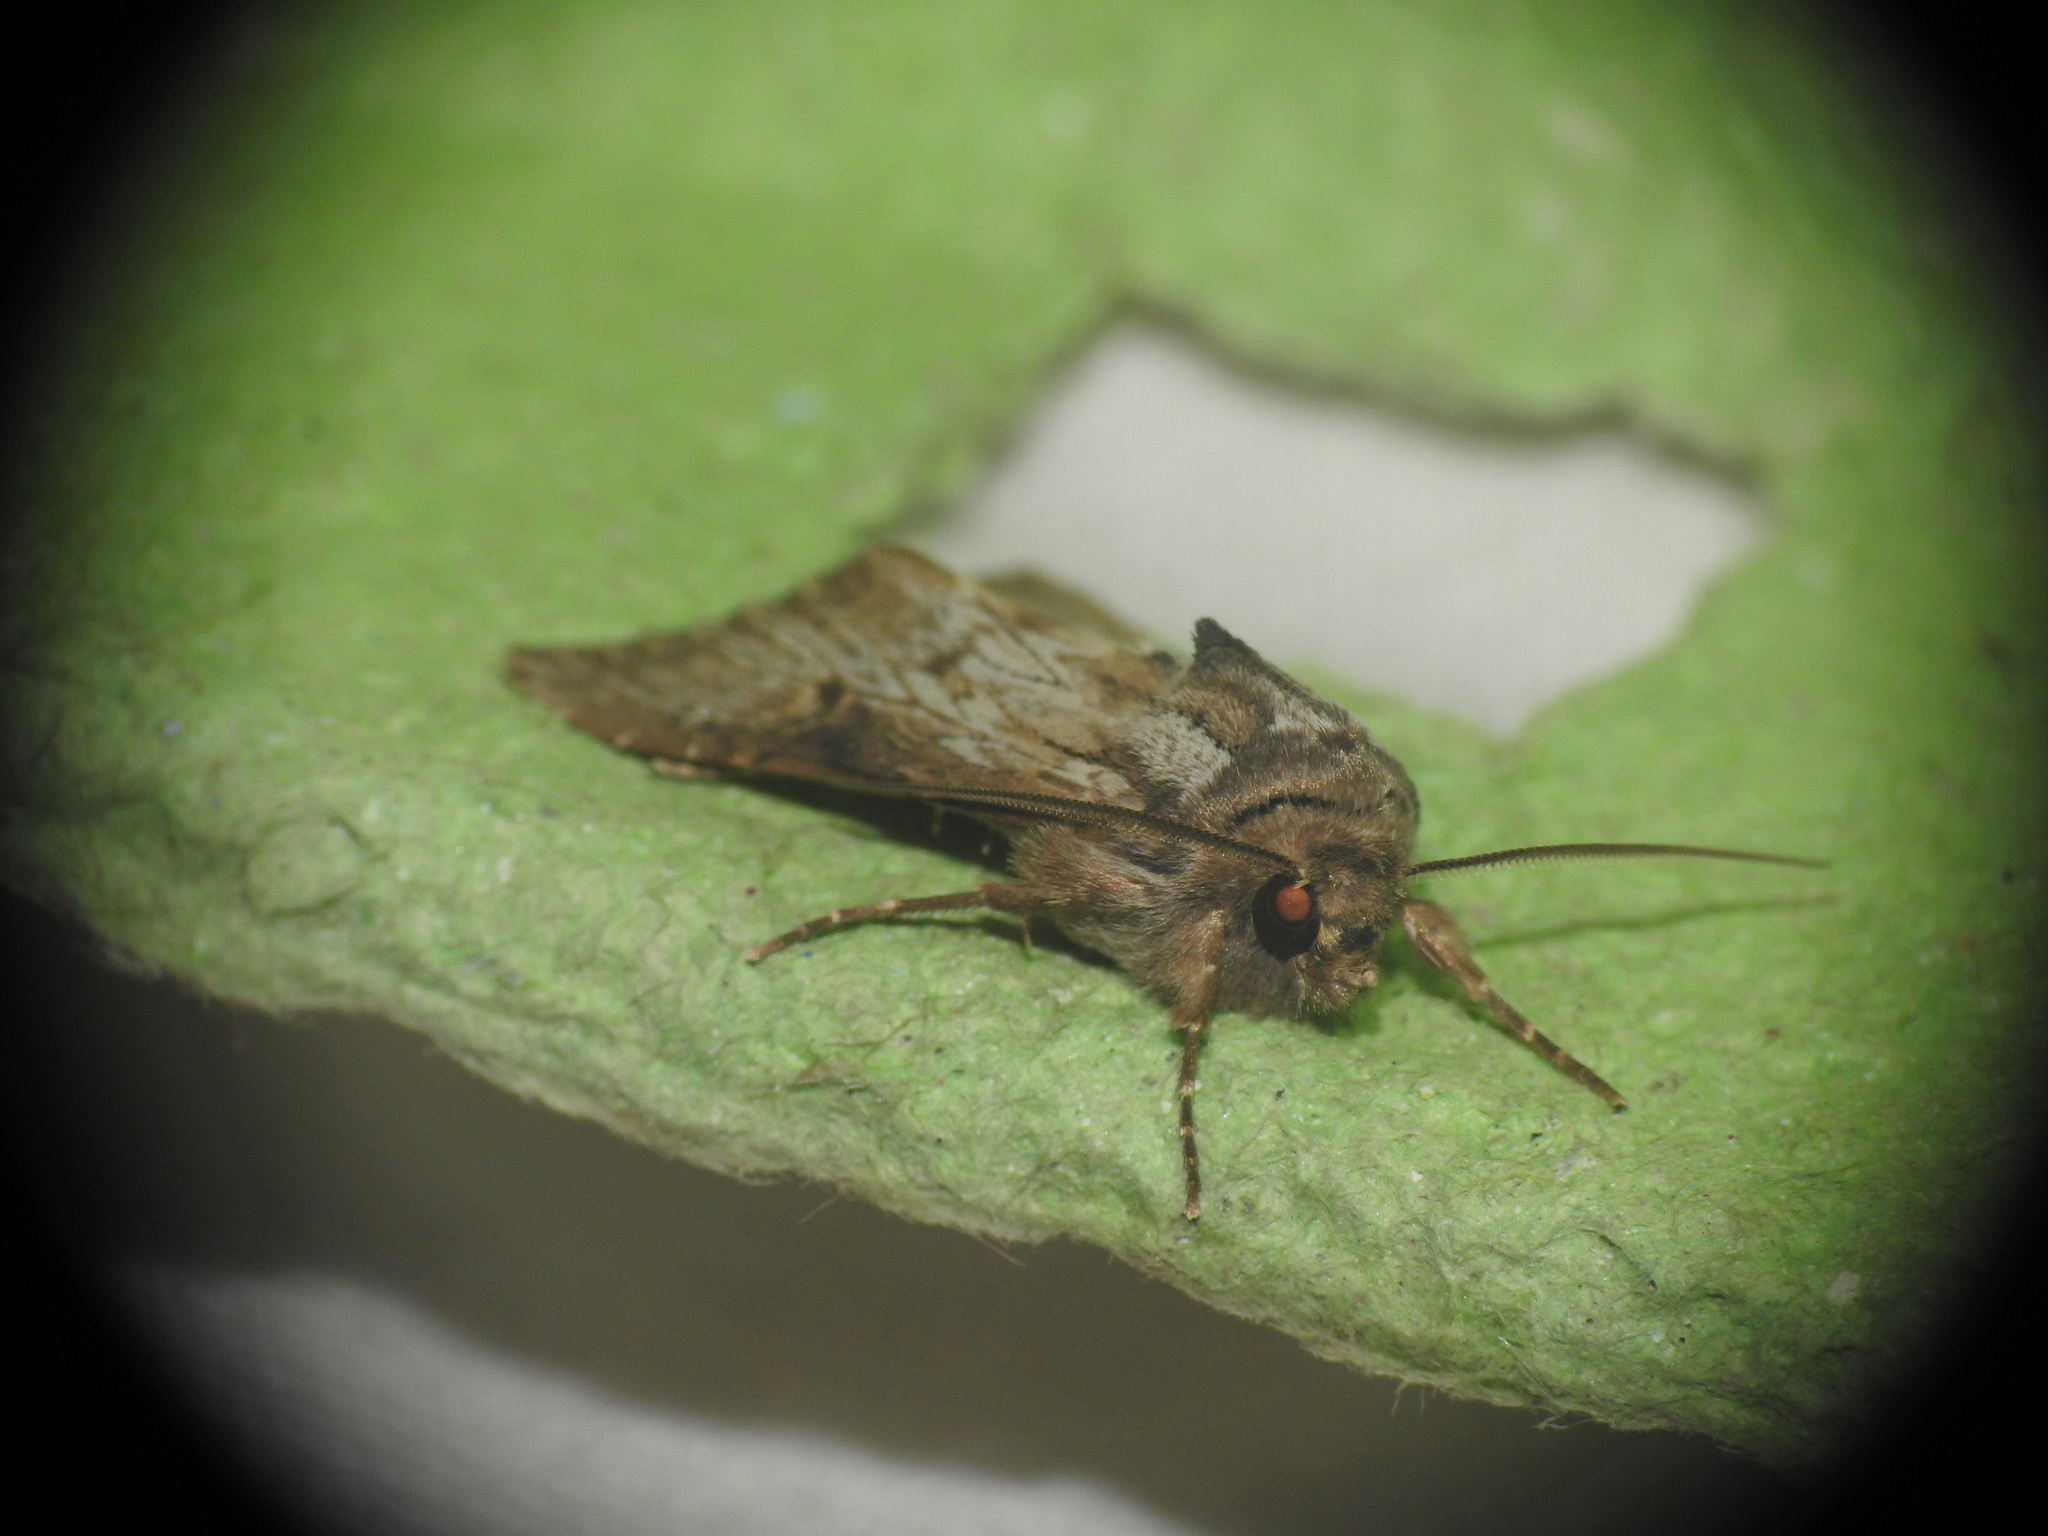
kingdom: Animalia
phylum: Arthropoda
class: Insecta
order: Lepidoptera
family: Noctuidae
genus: Aporophyla
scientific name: Aporophyla australis
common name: Feathered brindle
